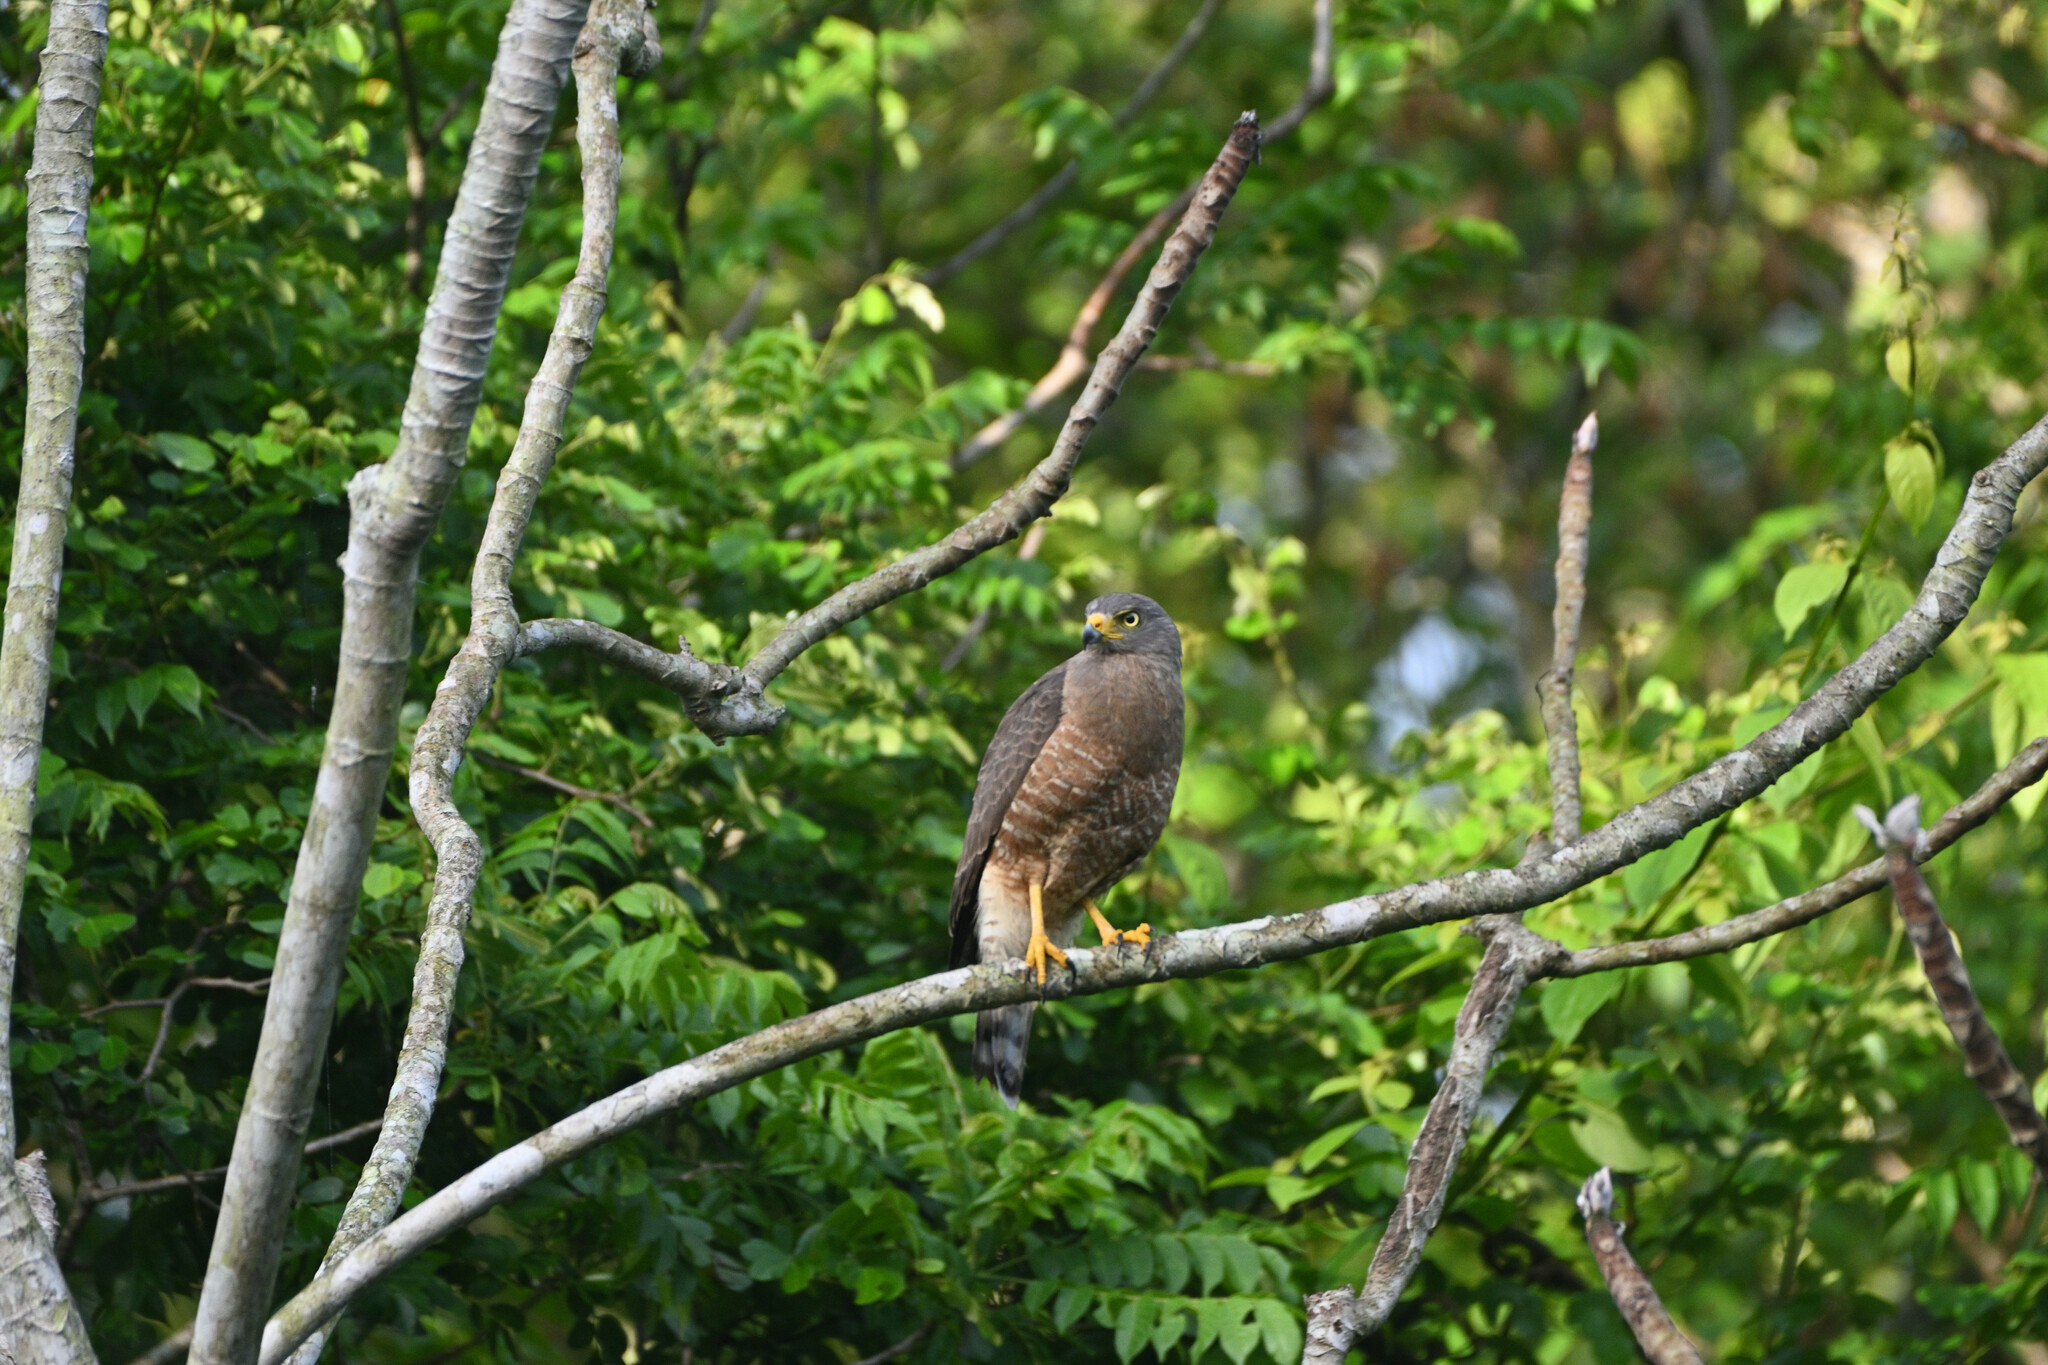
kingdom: Animalia
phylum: Chordata
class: Aves
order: Accipitriformes
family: Accipitridae
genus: Rupornis
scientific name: Rupornis magnirostris
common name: Roadside hawk
